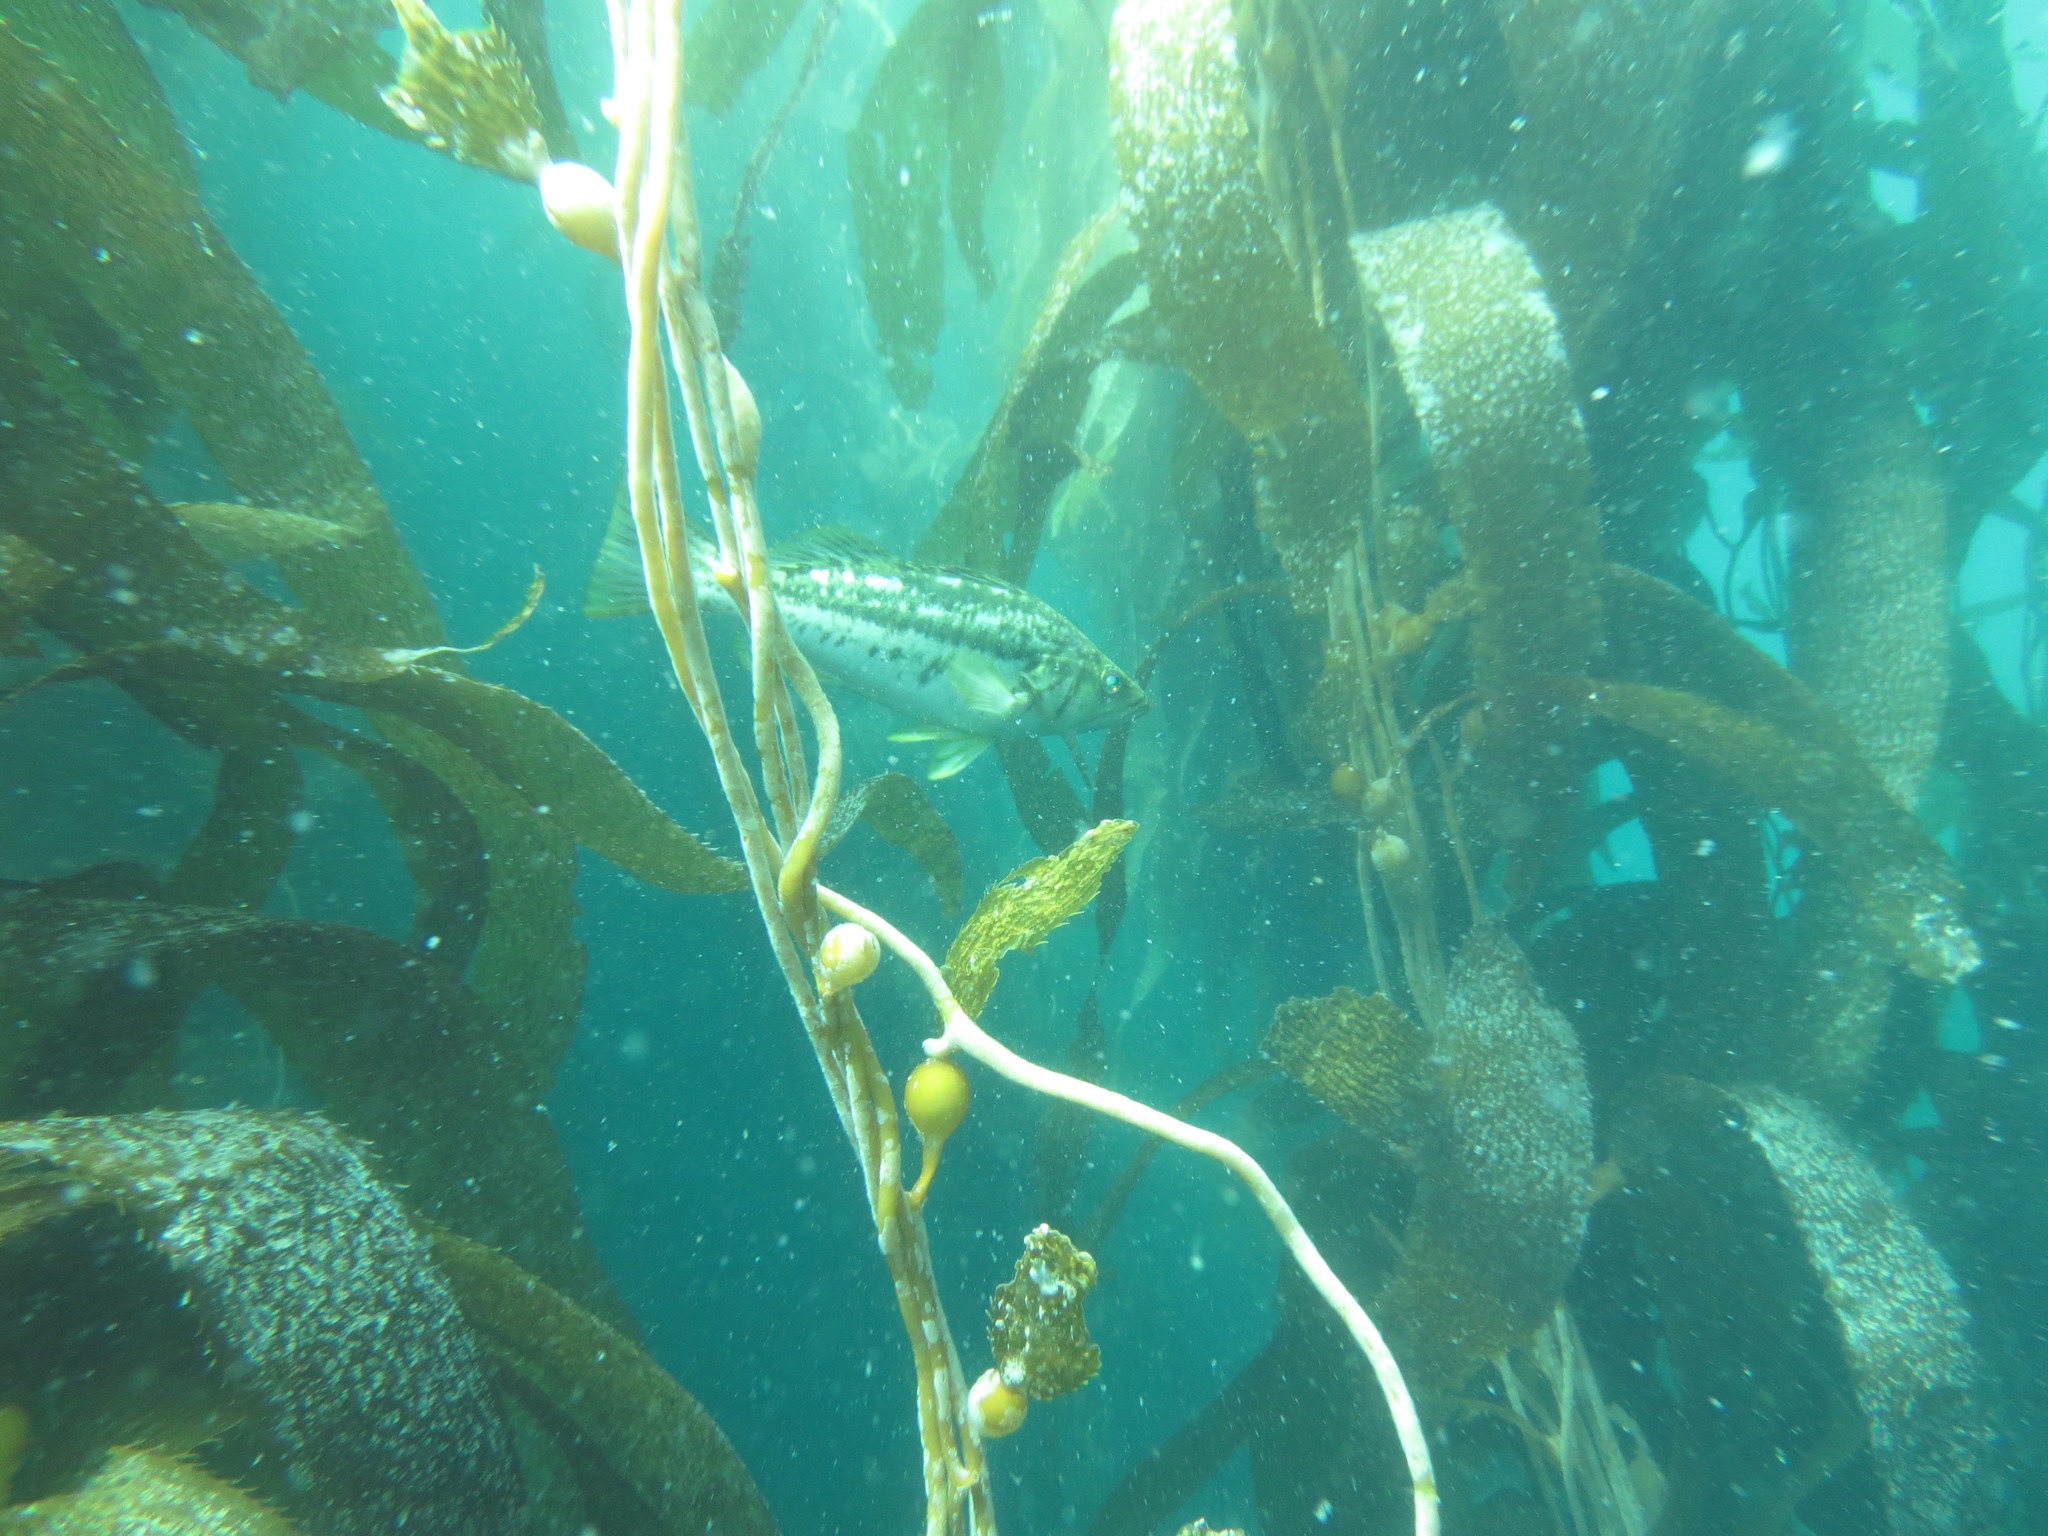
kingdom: Animalia
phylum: Chordata
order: Perciformes
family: Serranidae
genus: Paralabrax
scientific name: Paralabrax clathratus
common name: Kelp bass
